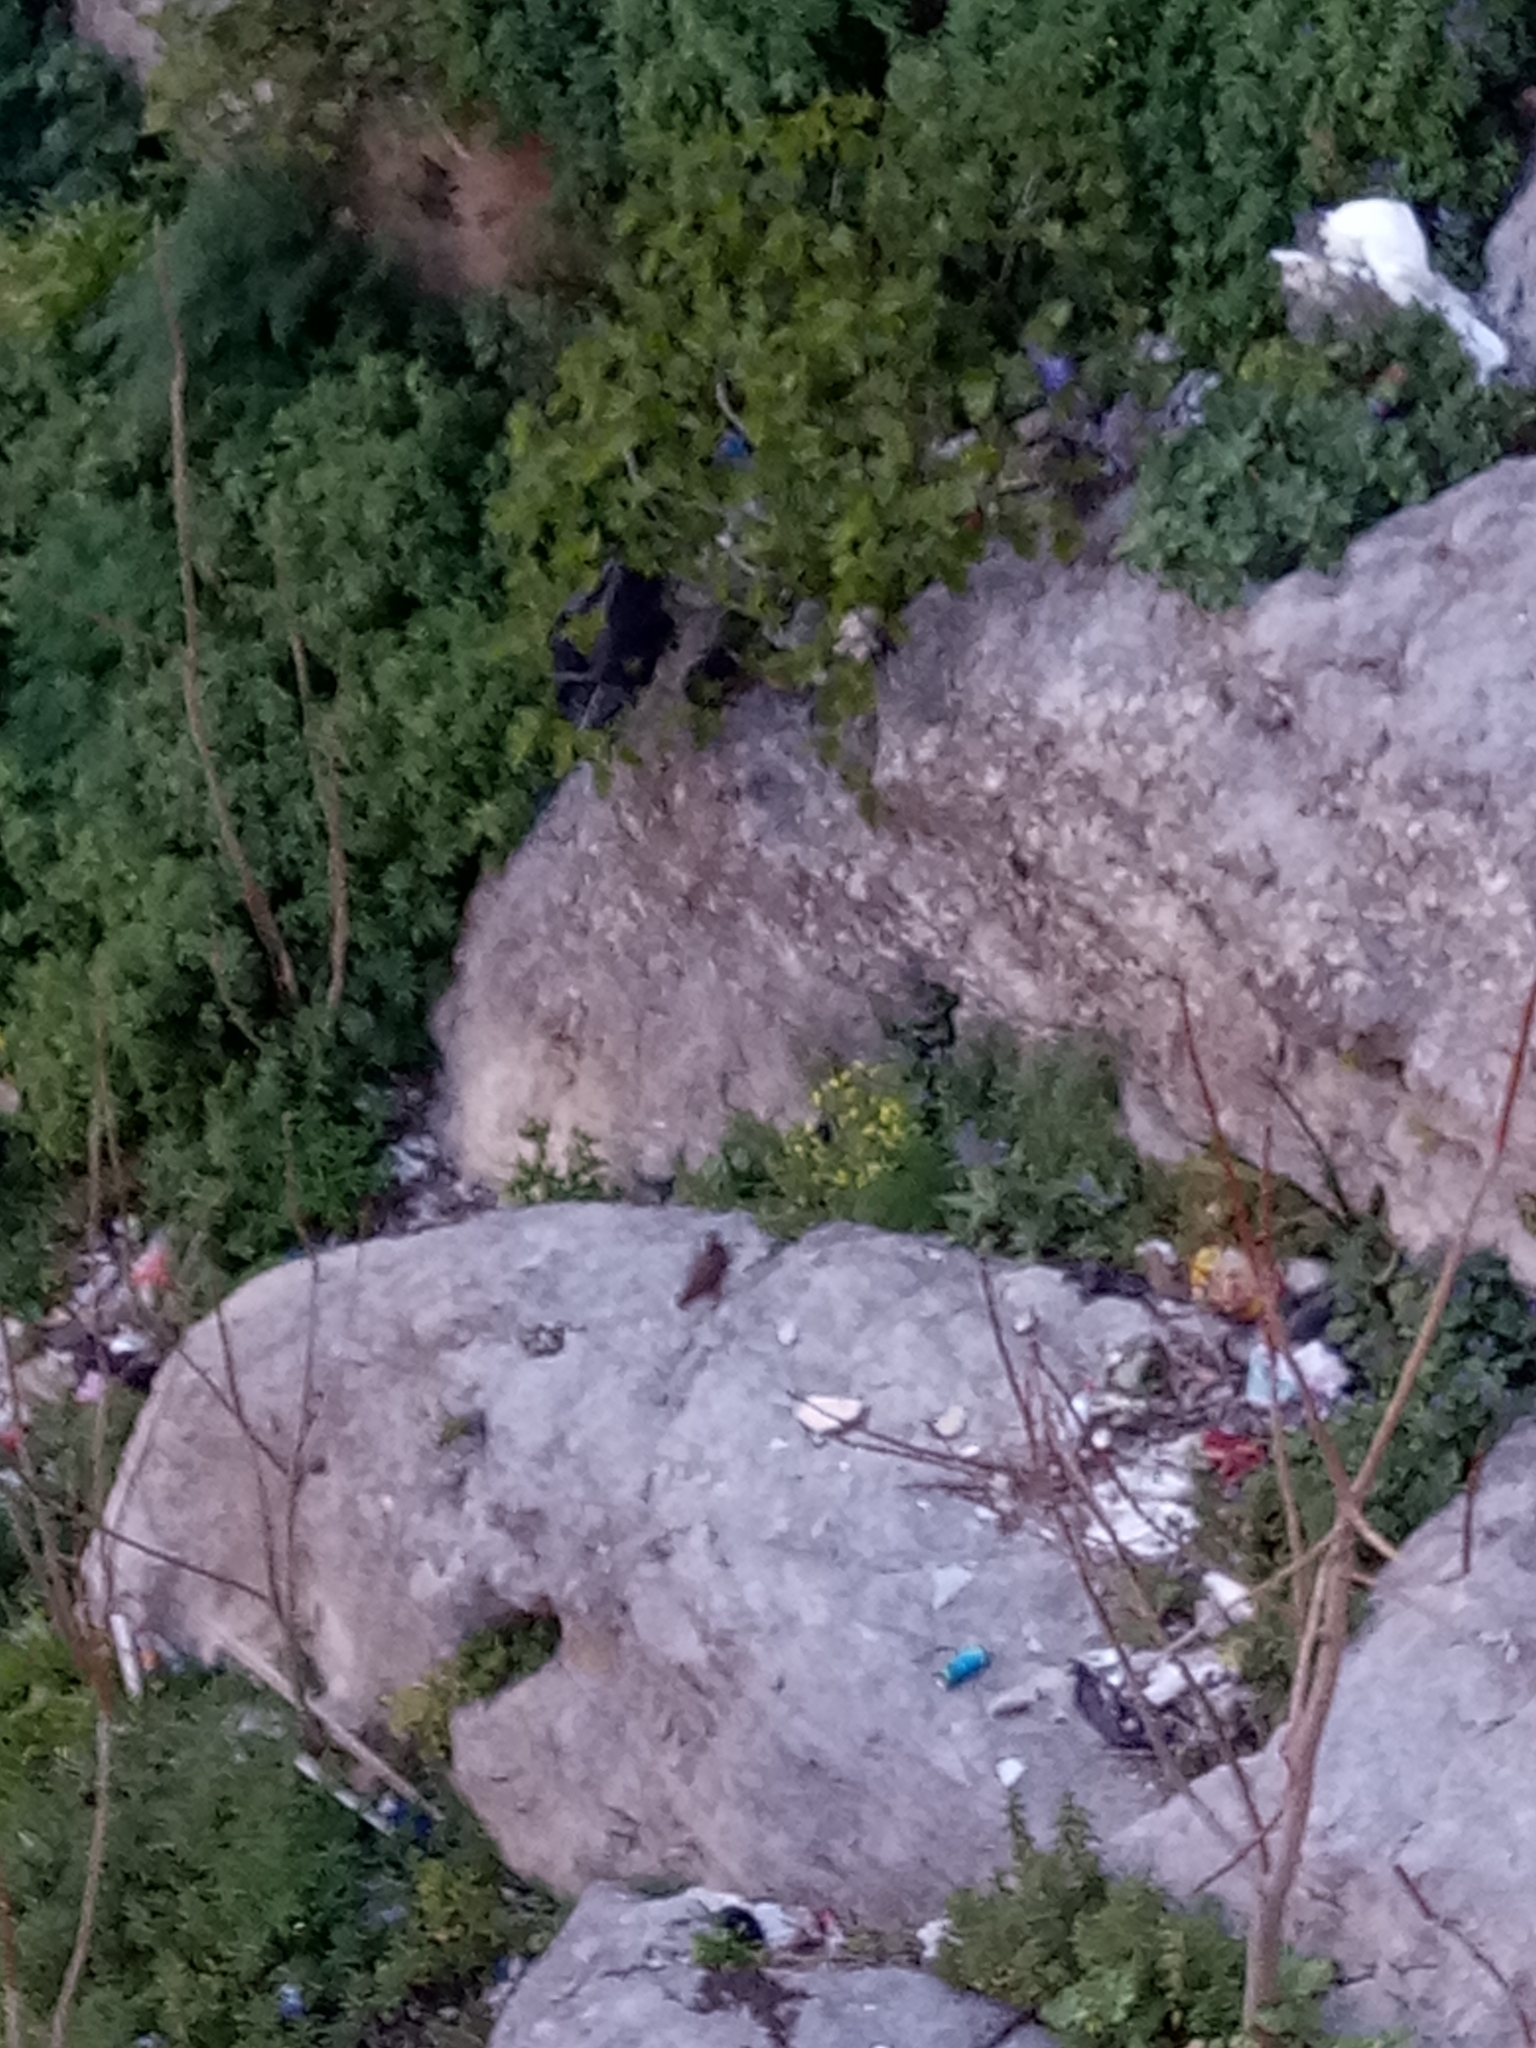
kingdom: Animalia
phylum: Chordata
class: Aves
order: Galliformes
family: Phasianidae
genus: Alectoris
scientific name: Alectoris barbara
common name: Barbary partridge
